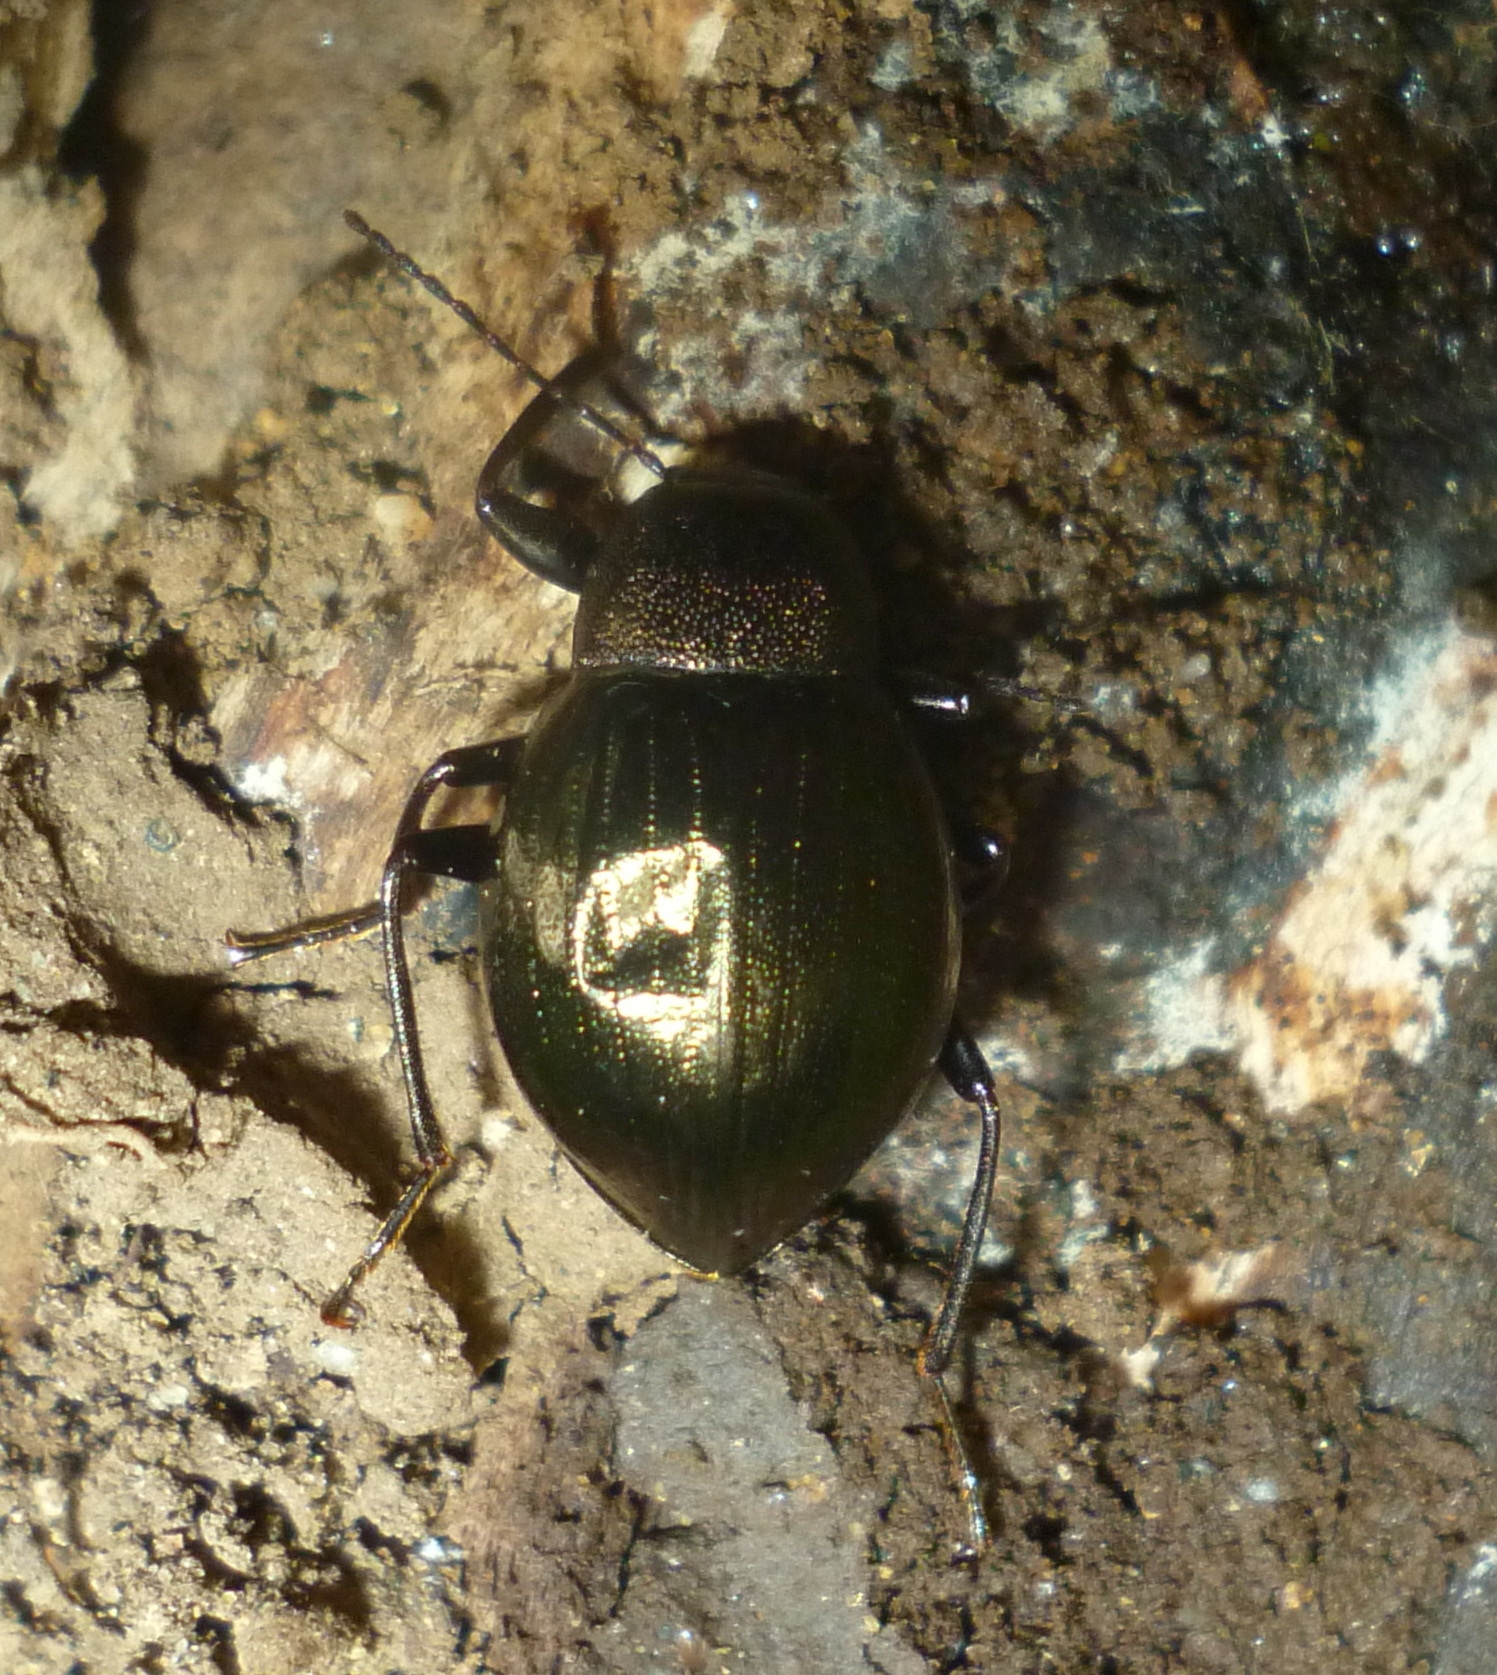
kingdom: Animalia
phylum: Arthropoda
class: Insecta
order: Coleoptera
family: Tenebrionidae
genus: Meracantha
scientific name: Meracantha contracta
